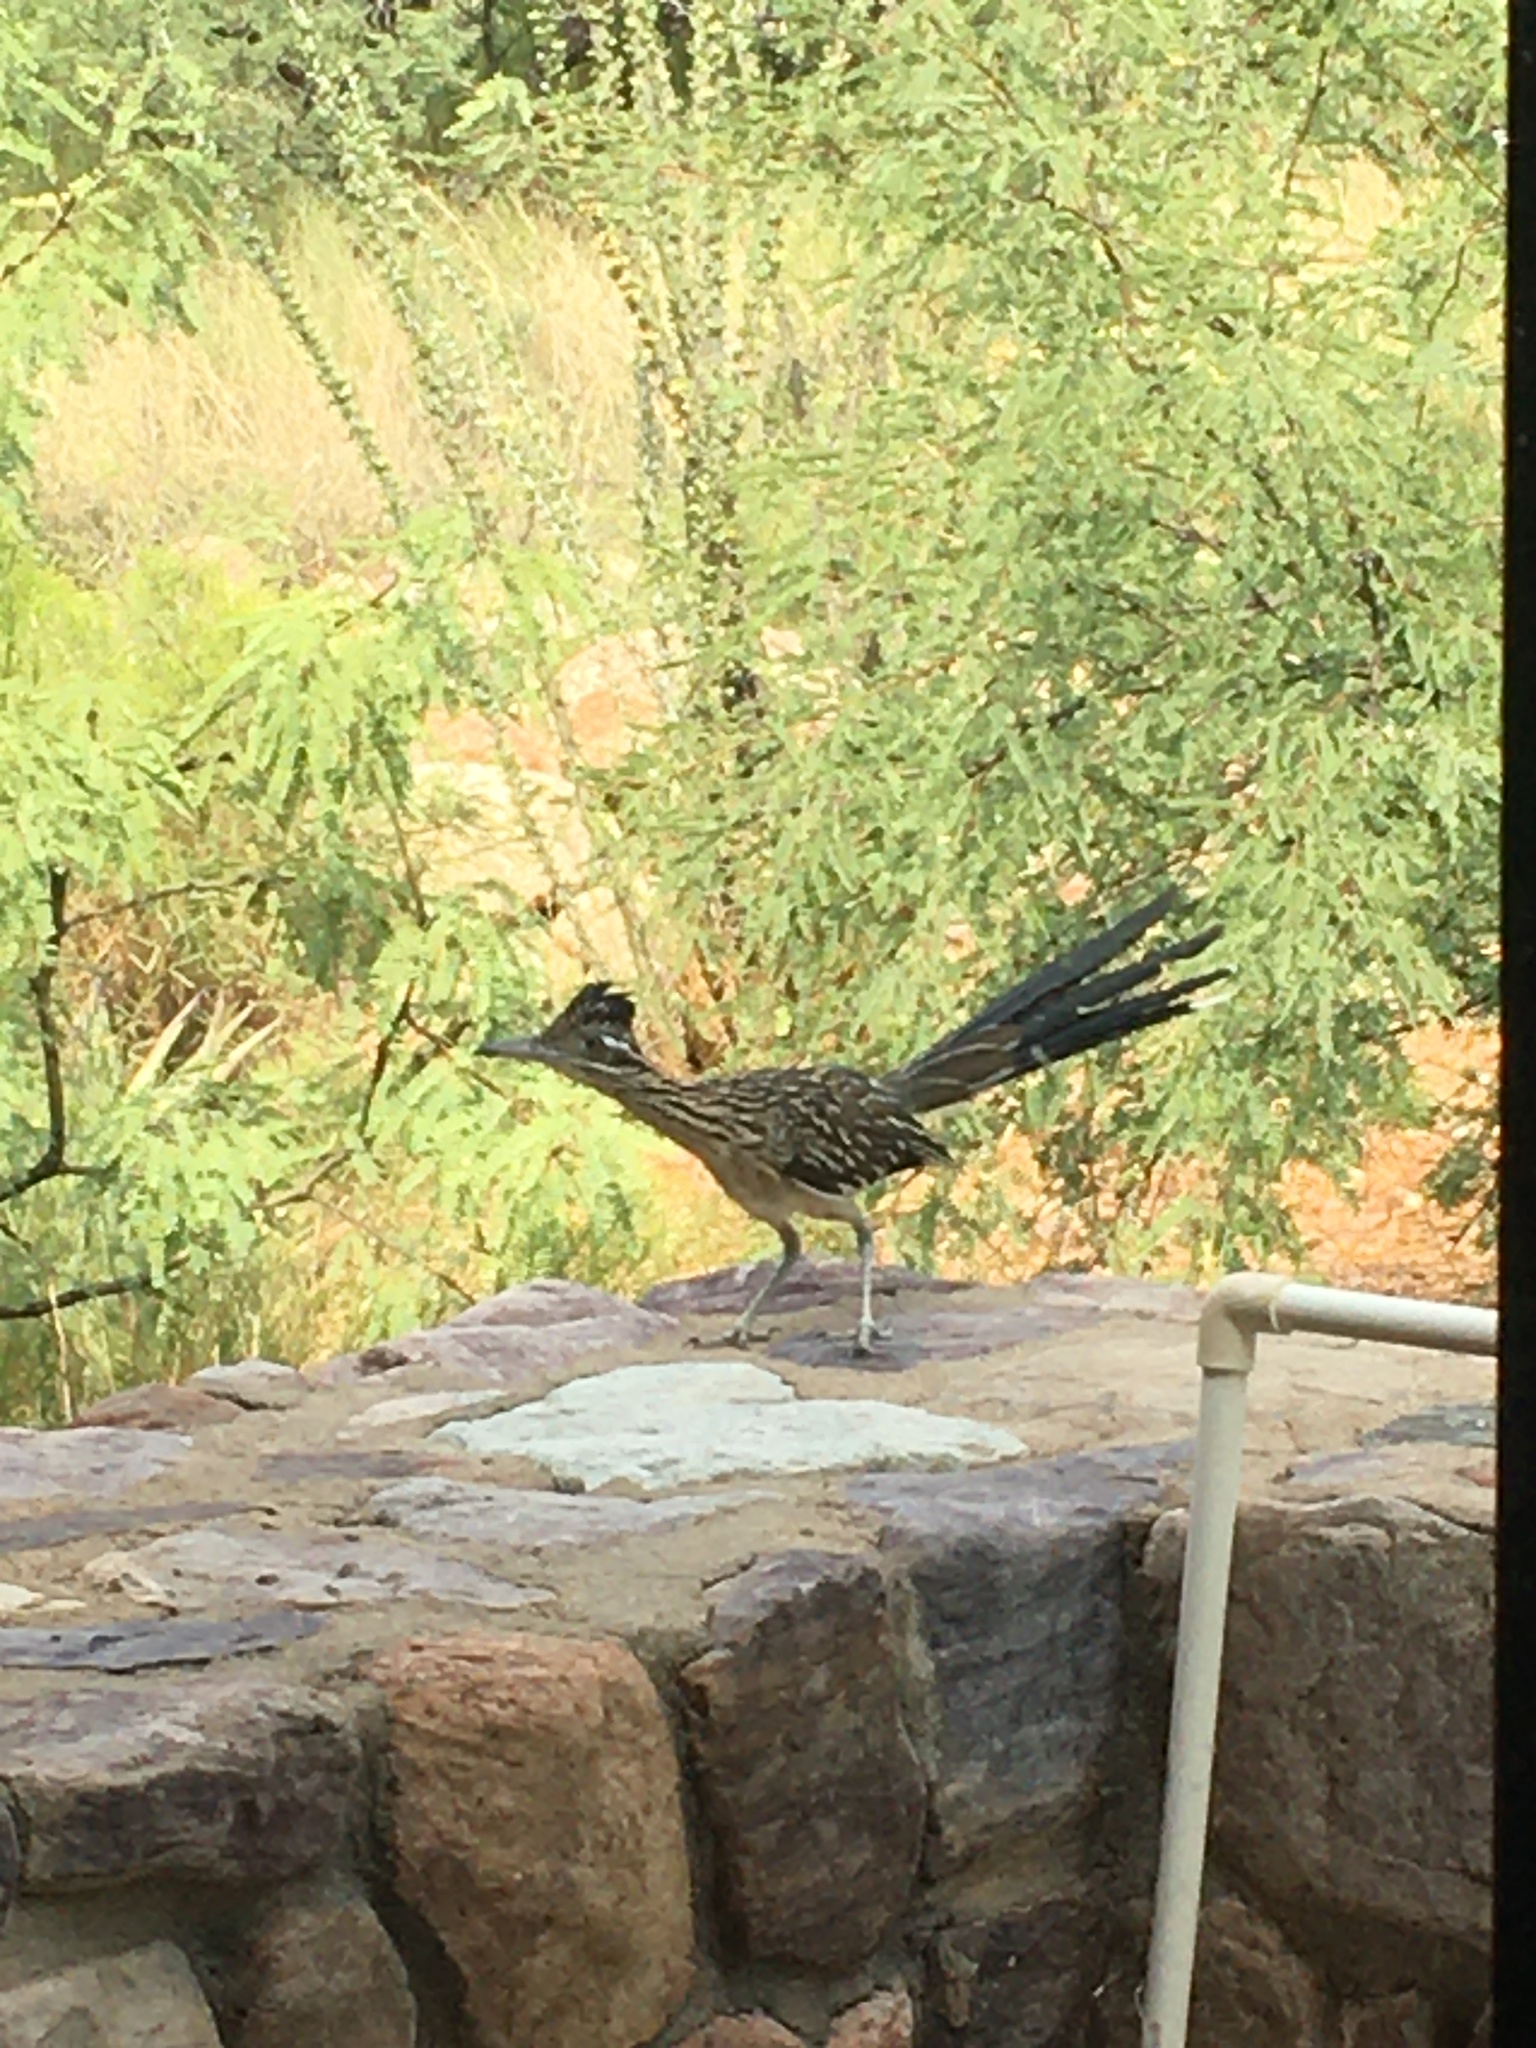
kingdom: Animalia
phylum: Chordata
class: Aves
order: Cuculiformes
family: Cuculidae
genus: Geococcyx
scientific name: Geococcyx californianus
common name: Greater roadrunner
